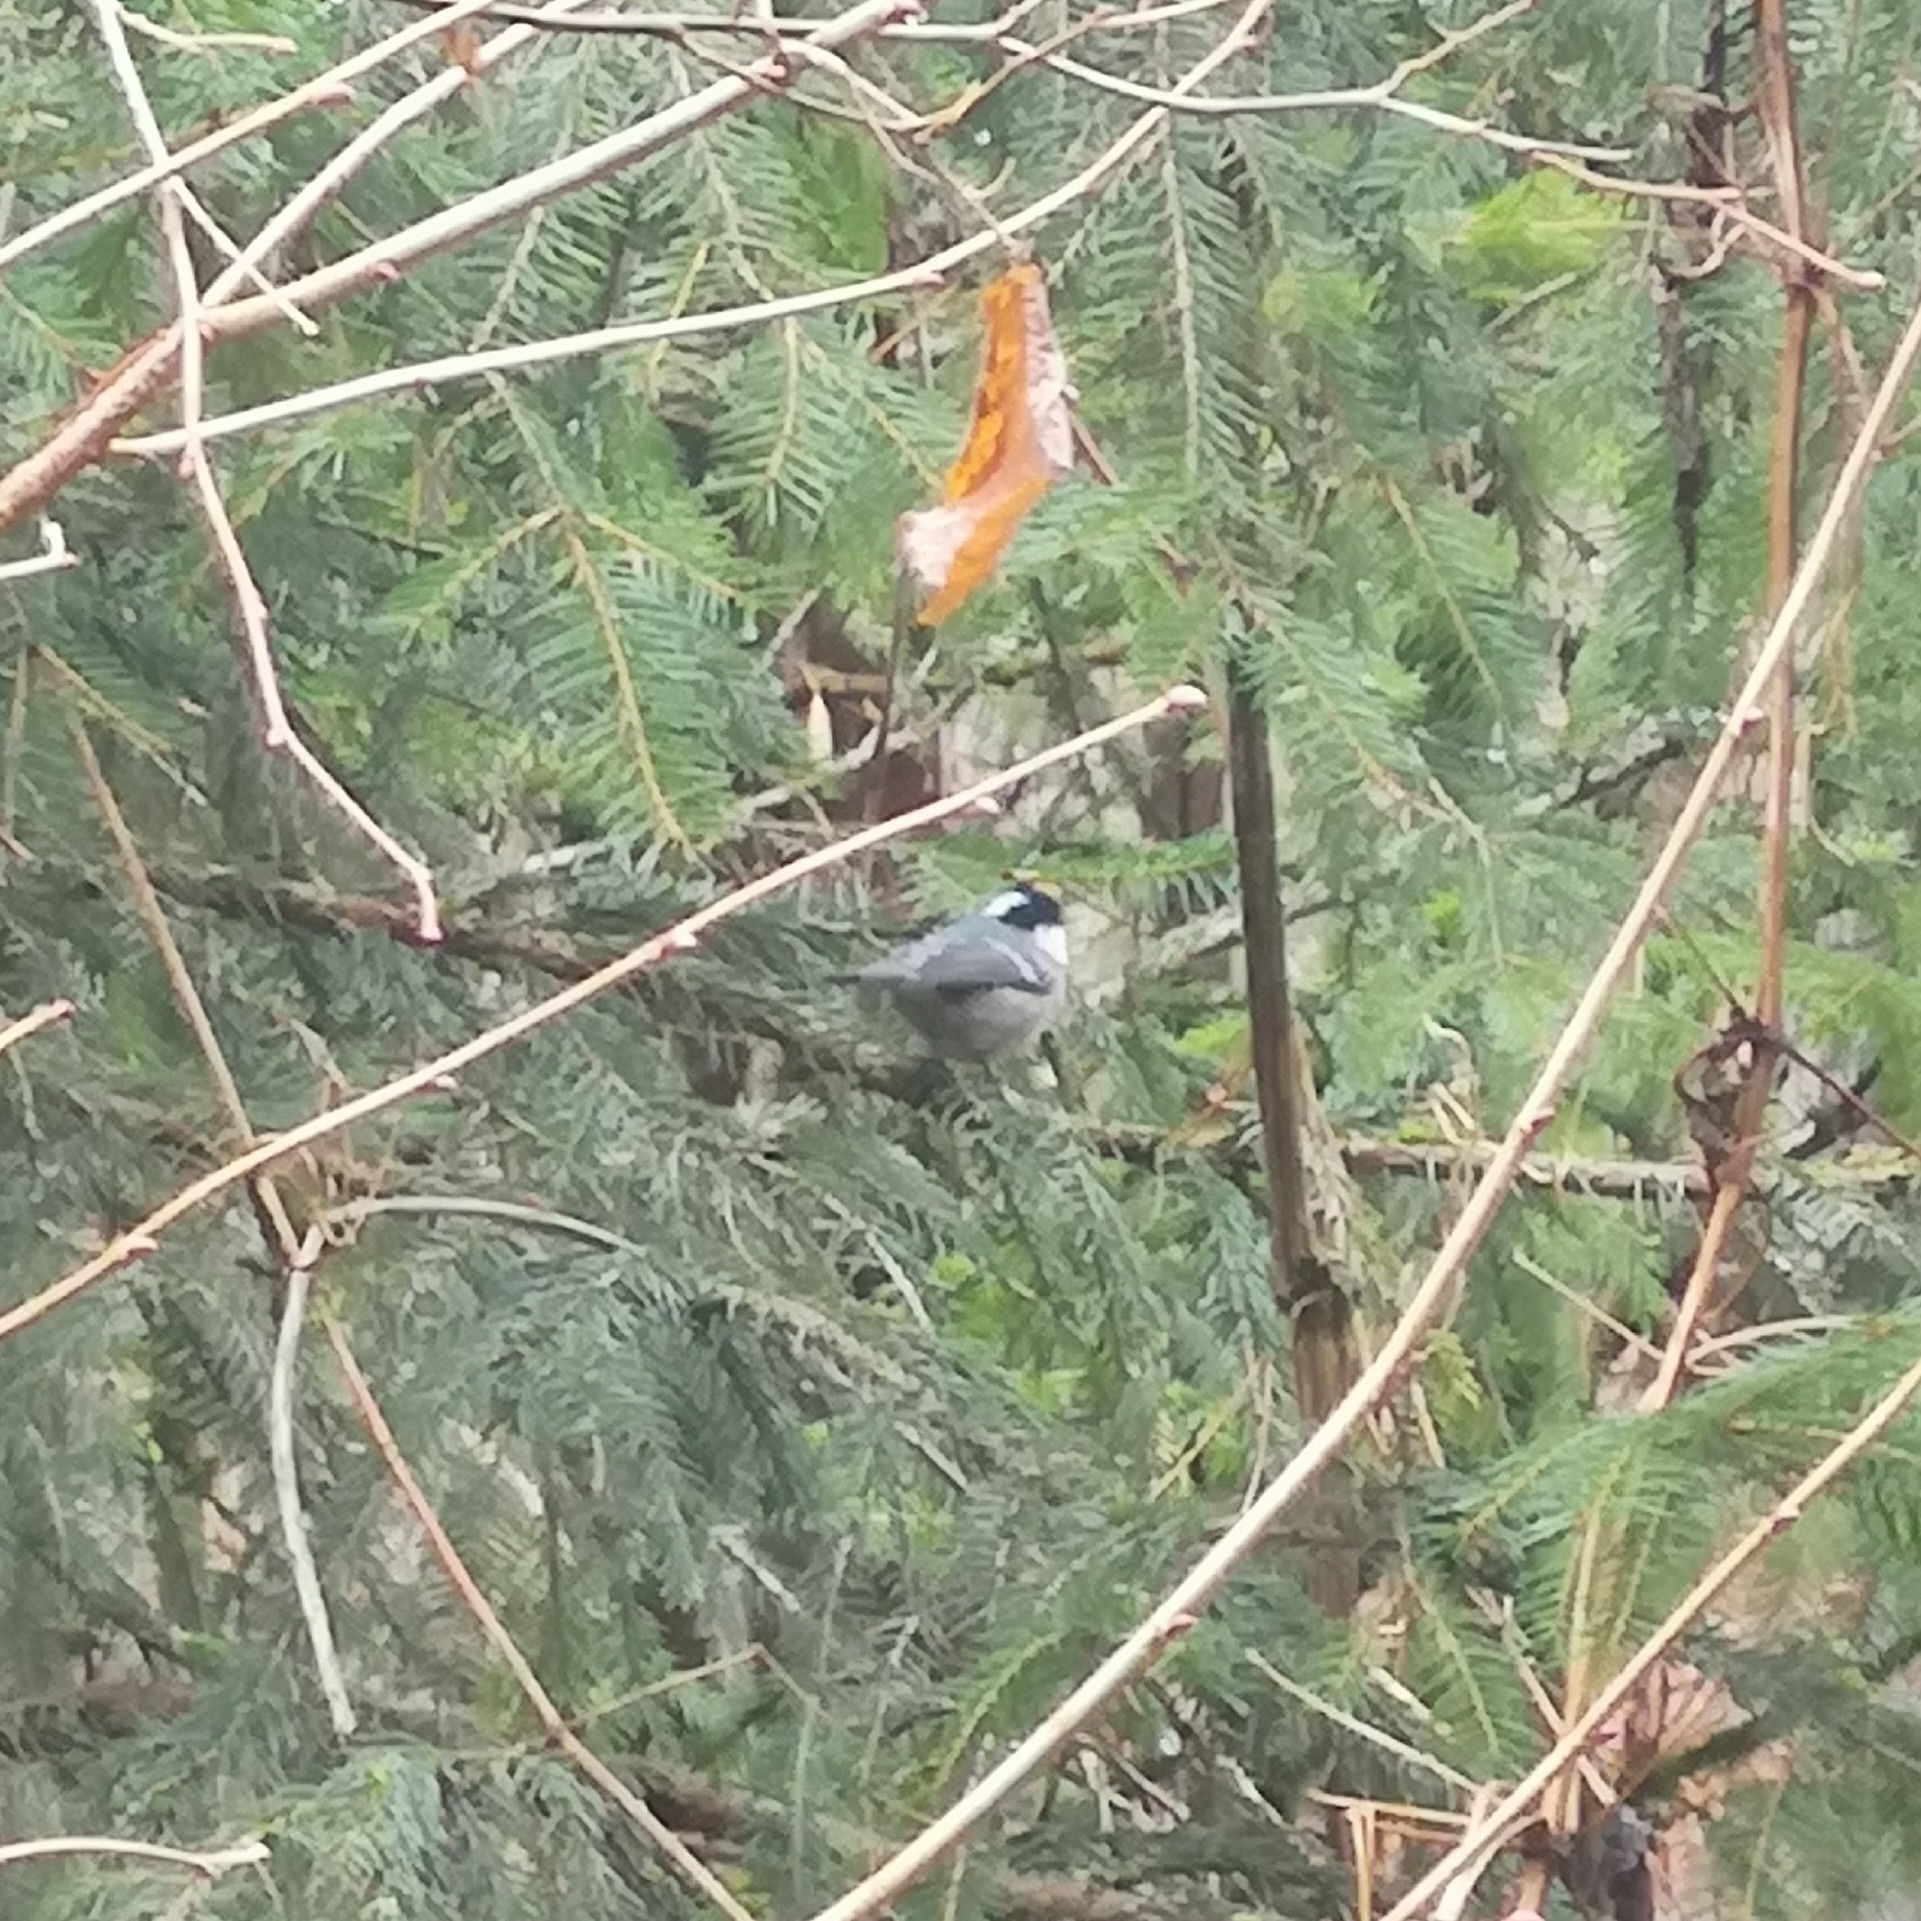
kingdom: Animalia
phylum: Chordata
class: Aves
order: Passeriformes
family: Paridae
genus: Periparus
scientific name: Periparus ater
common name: Coal tit
